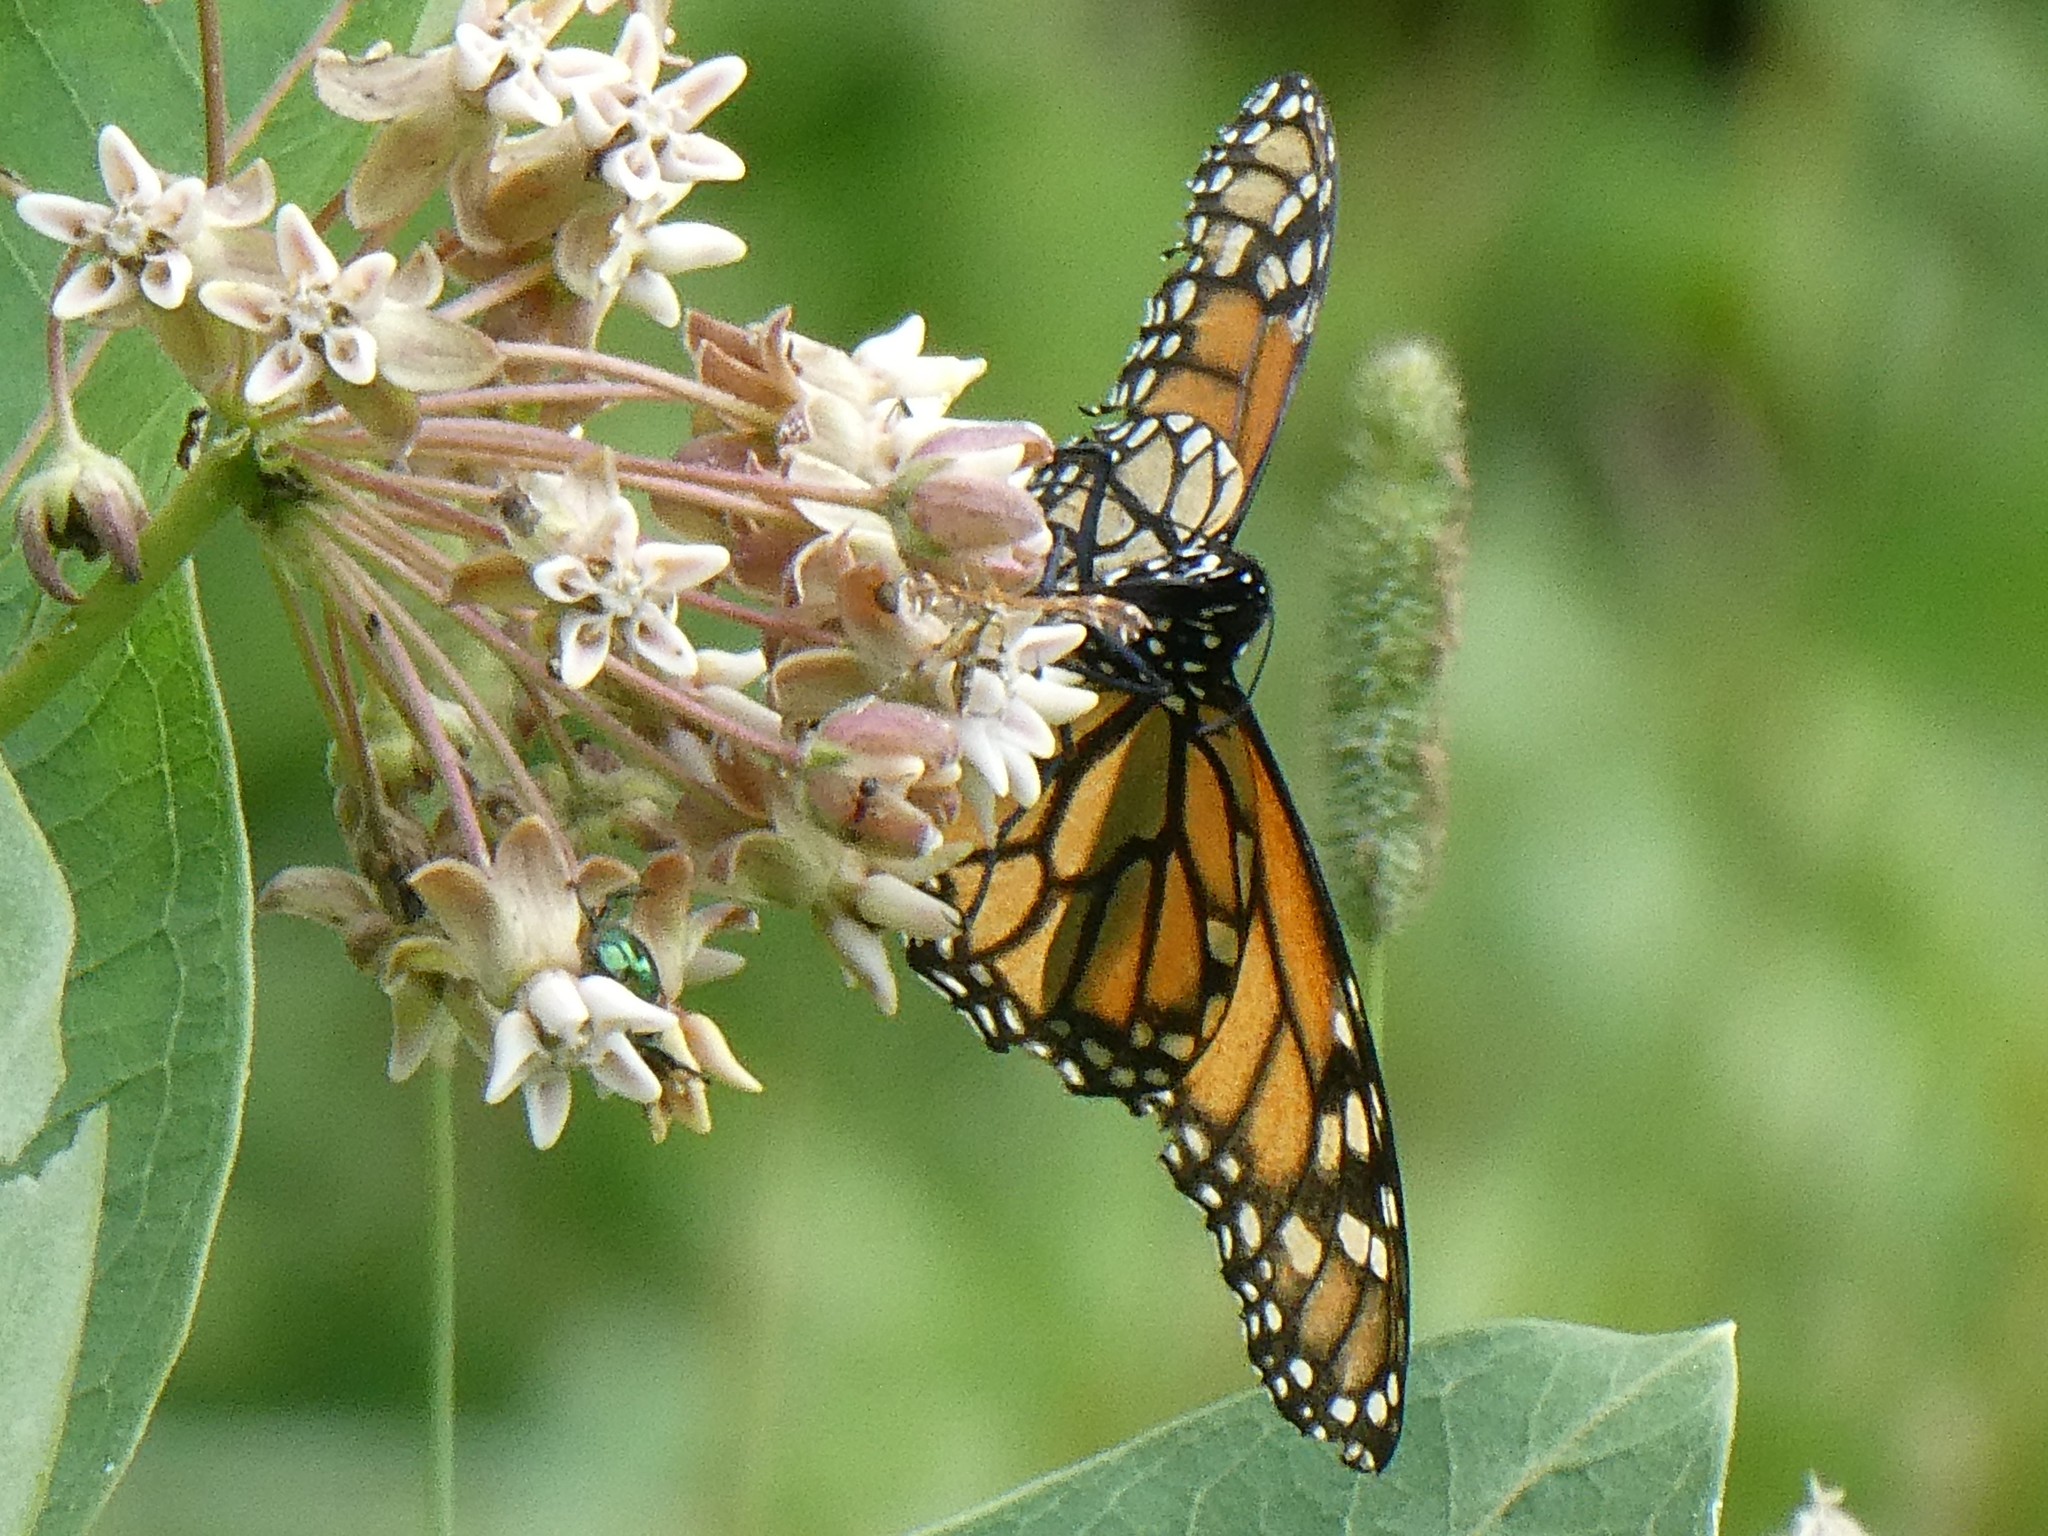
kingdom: Animalia
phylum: Arthropoda
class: Insecta
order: Lepidoptera
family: Nymphalidae
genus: Danaus
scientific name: Danaus plexippus
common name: Monarch
